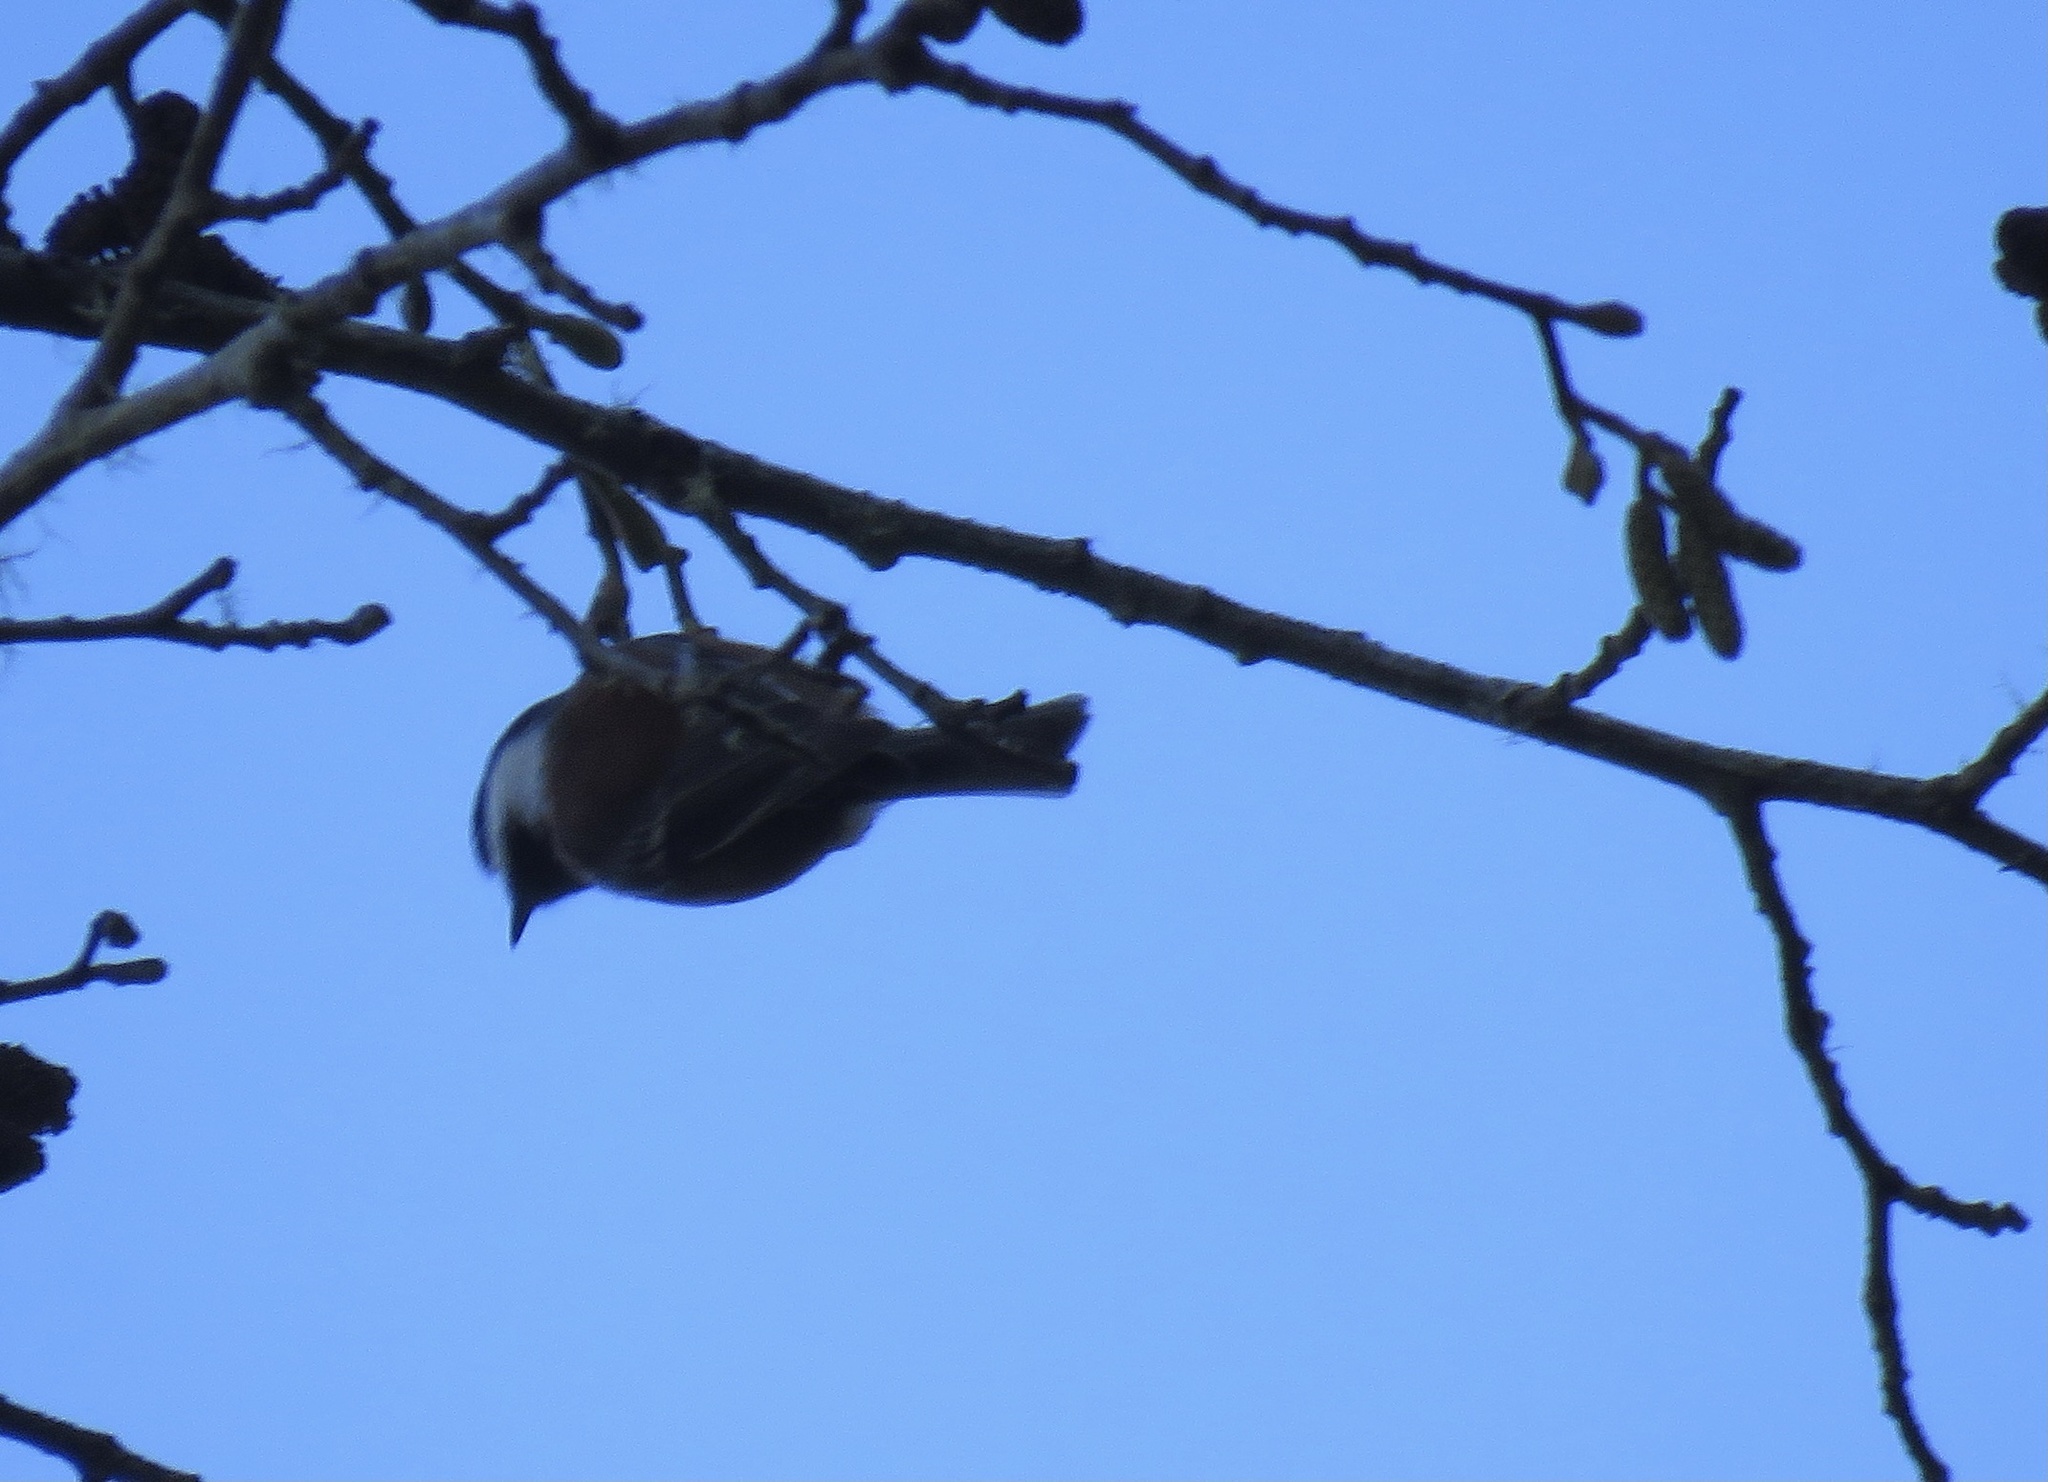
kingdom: Animalia
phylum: Chordata
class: Aves
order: Passeriformes
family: Paridae
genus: Poecile
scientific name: Poecile rufescens
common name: Chestnut-backed chickadee
